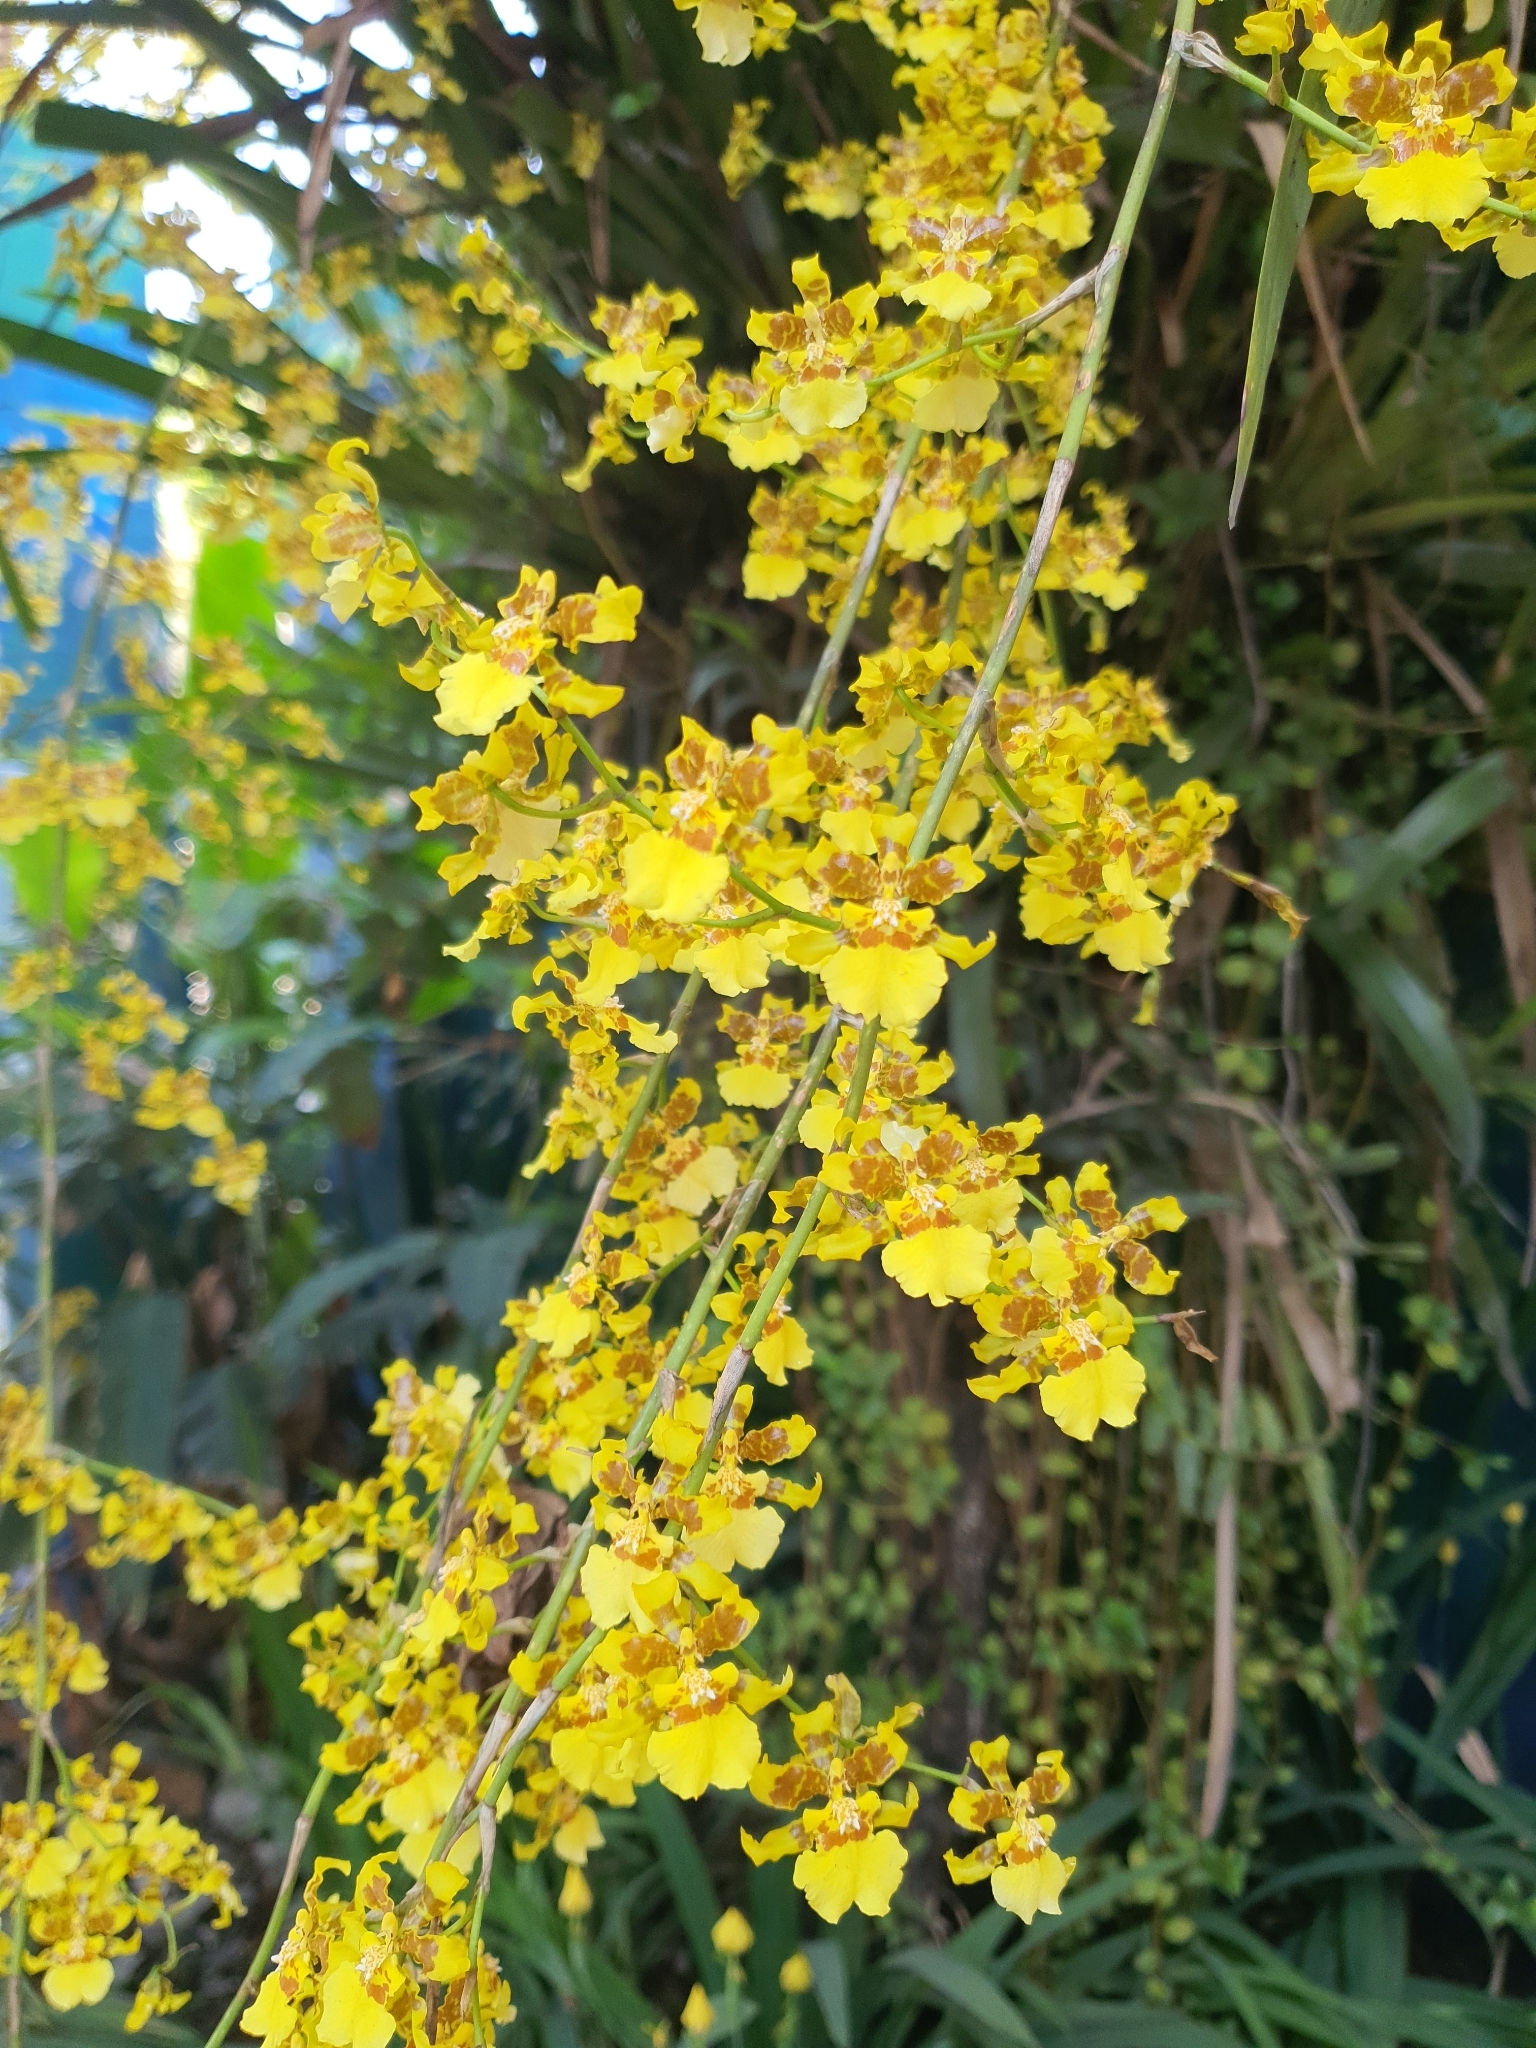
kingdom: Plantae
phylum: Tracheophyta
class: Liliopsida
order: Asparagales
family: Orchidaceae
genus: Oncidium
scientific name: Oncidium sphacelatum
